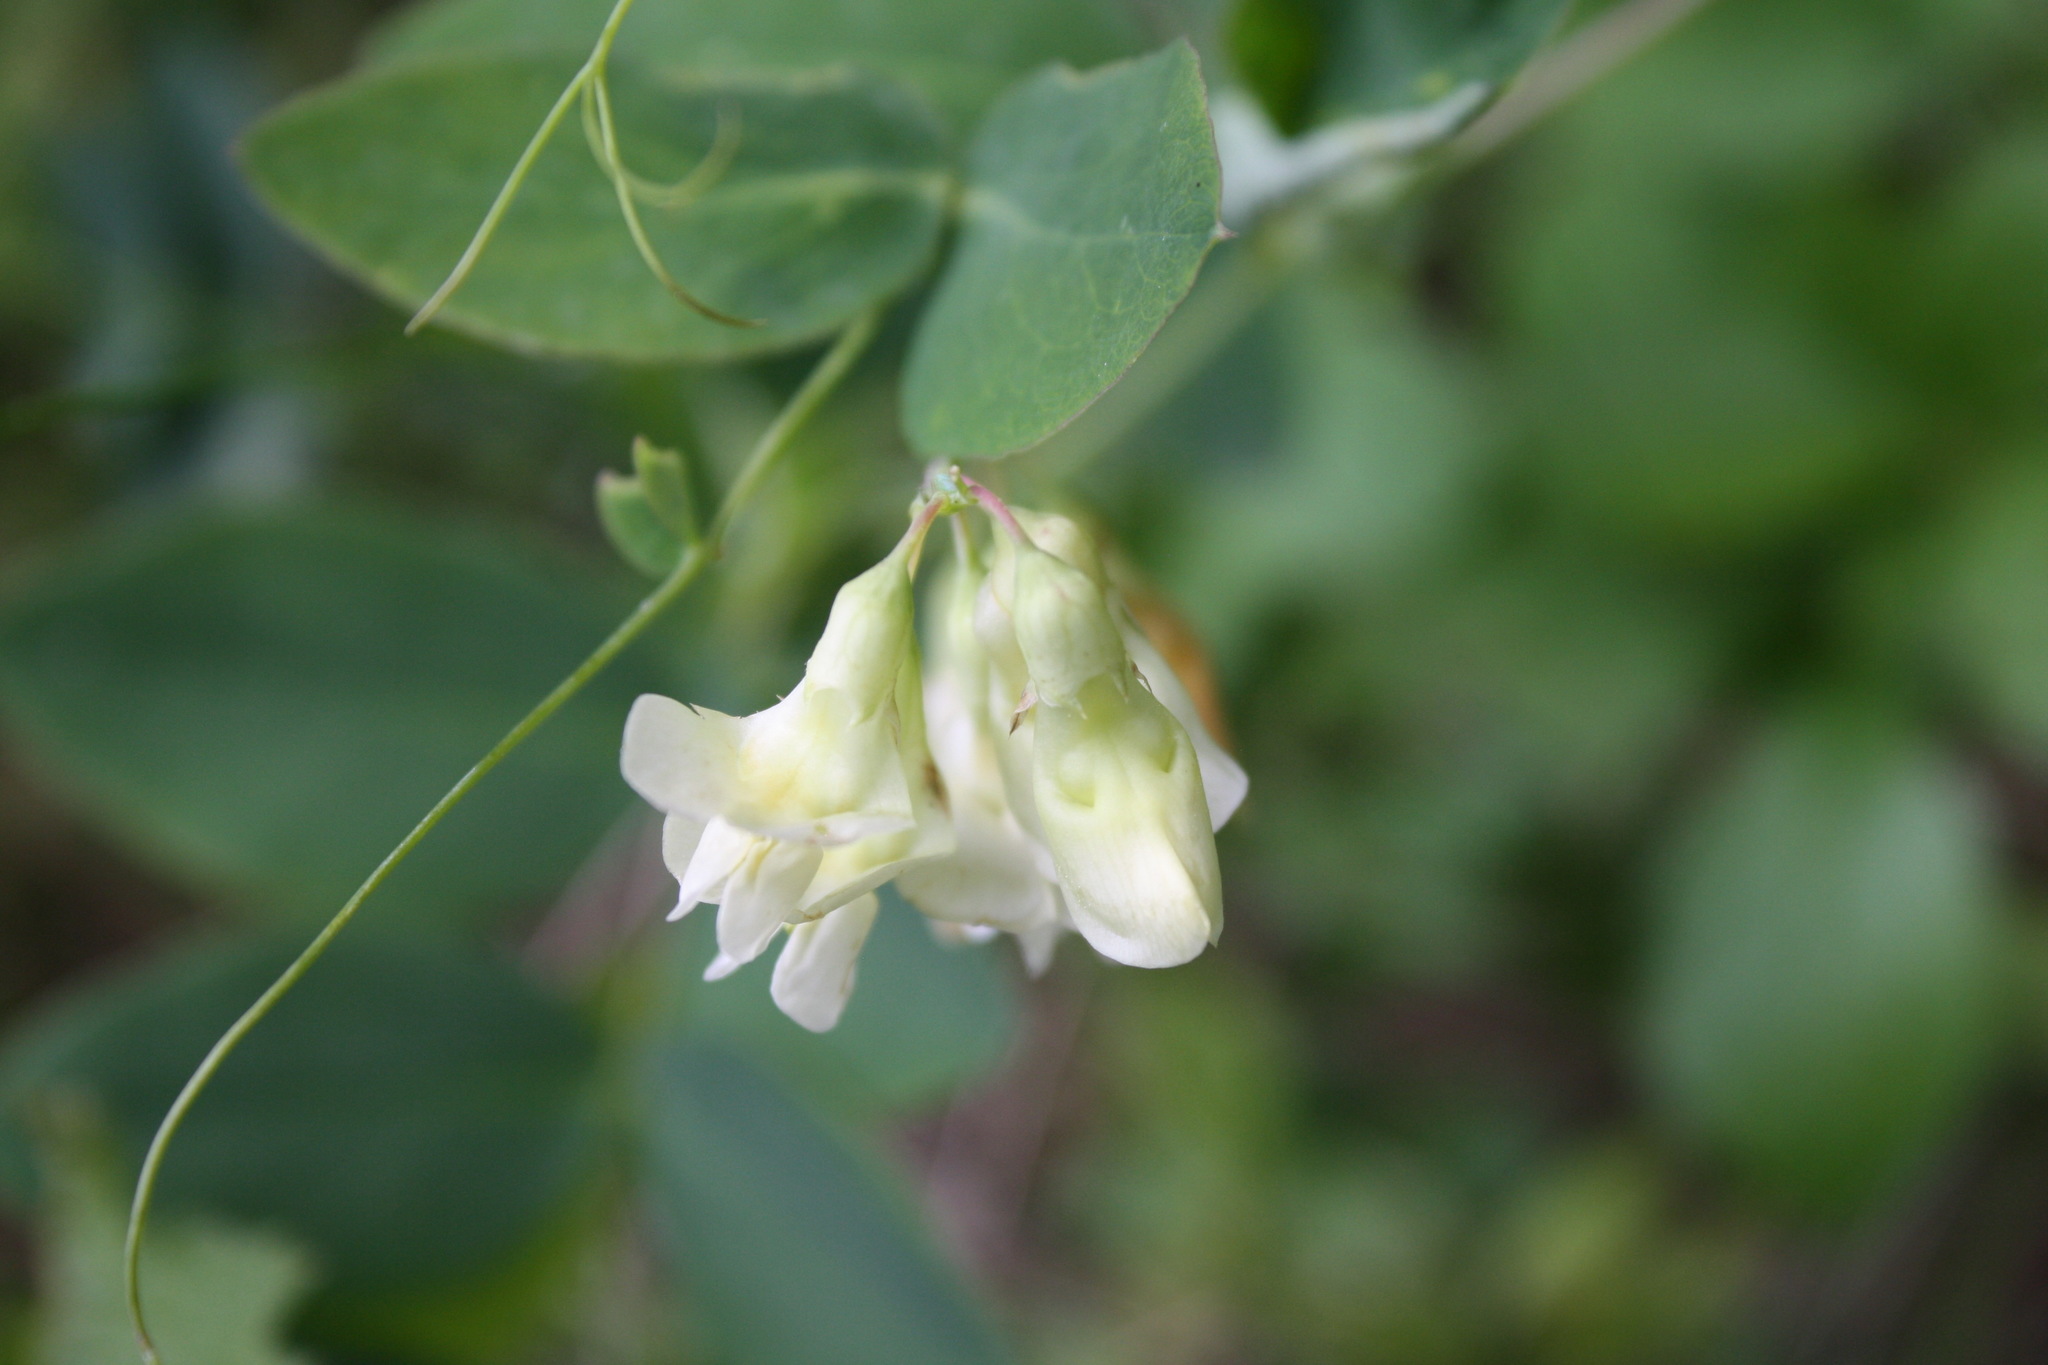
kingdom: Plantae
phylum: Tracheophyta
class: Magnoliopsida
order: Fabales
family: Fabaceae
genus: Lathyrus
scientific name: Lathyrus ochroleucus
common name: Pale vetchling
